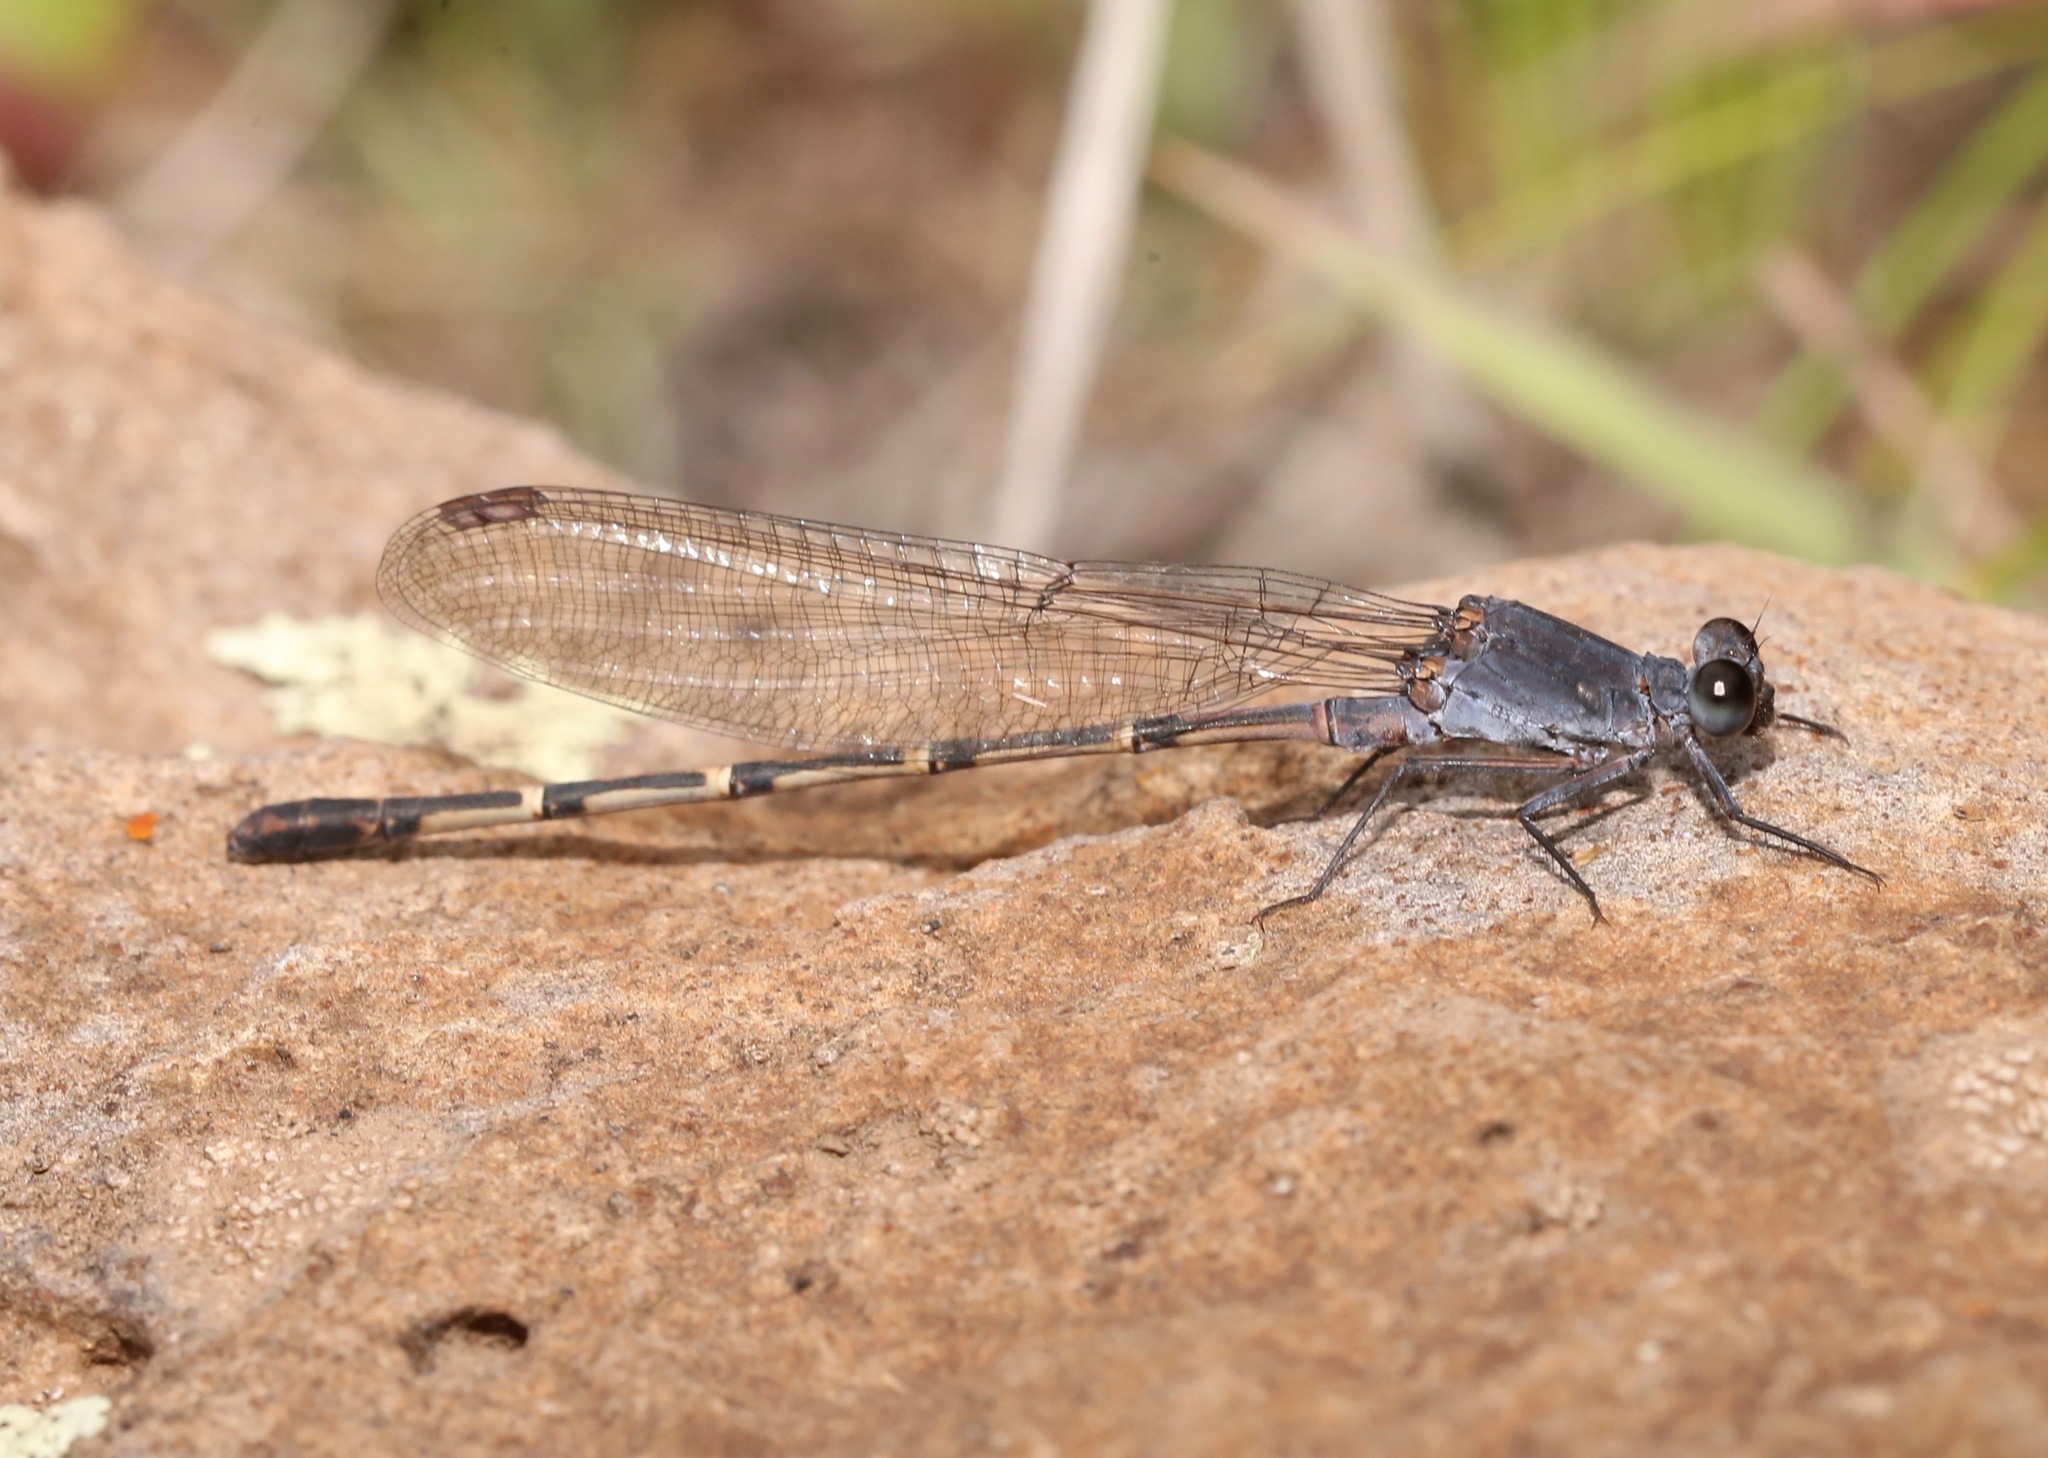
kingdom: Animalia
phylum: Arthropoda
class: Insecta
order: Odonata
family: Coenagrionidae
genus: Argia
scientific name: Argia lugens
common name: Sooty dancer
